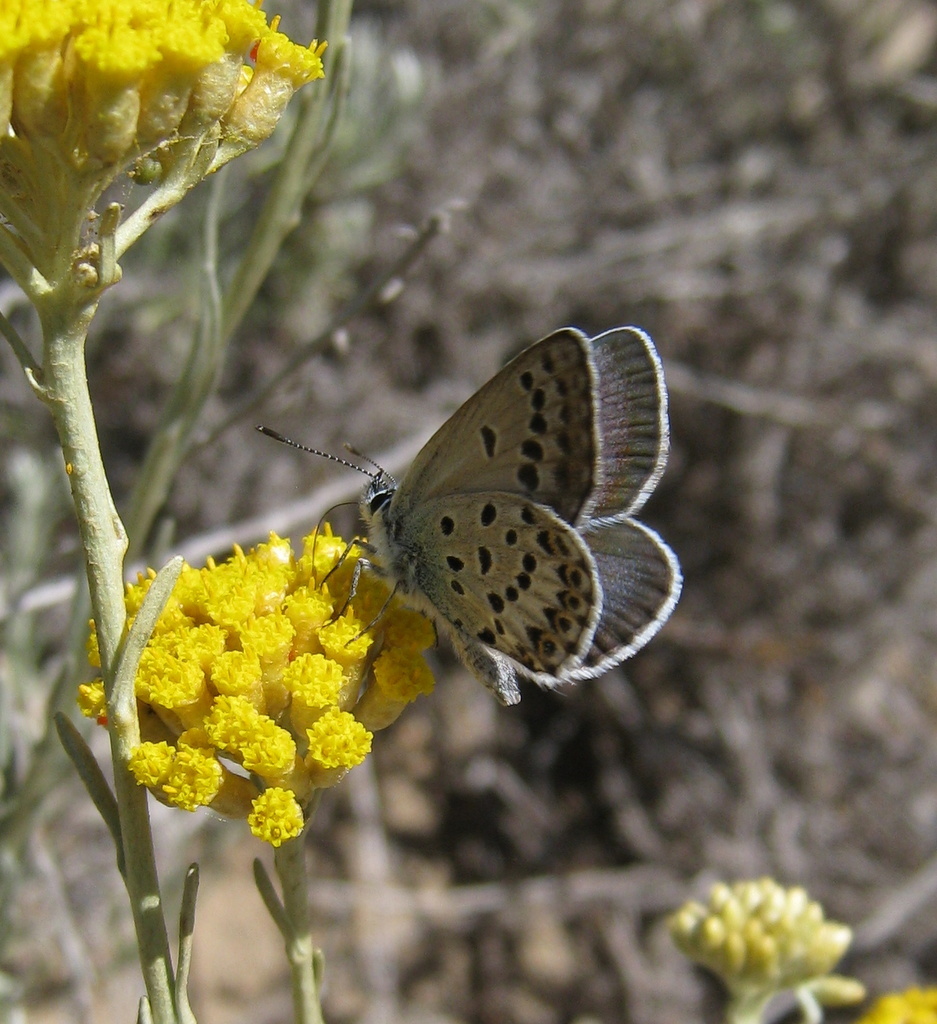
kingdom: Animalia
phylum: Arthropoda
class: Insecta
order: Lepidoptera
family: Lycaenidae
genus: Lycaeides
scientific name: Lycaeides idas
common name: Northern blue
